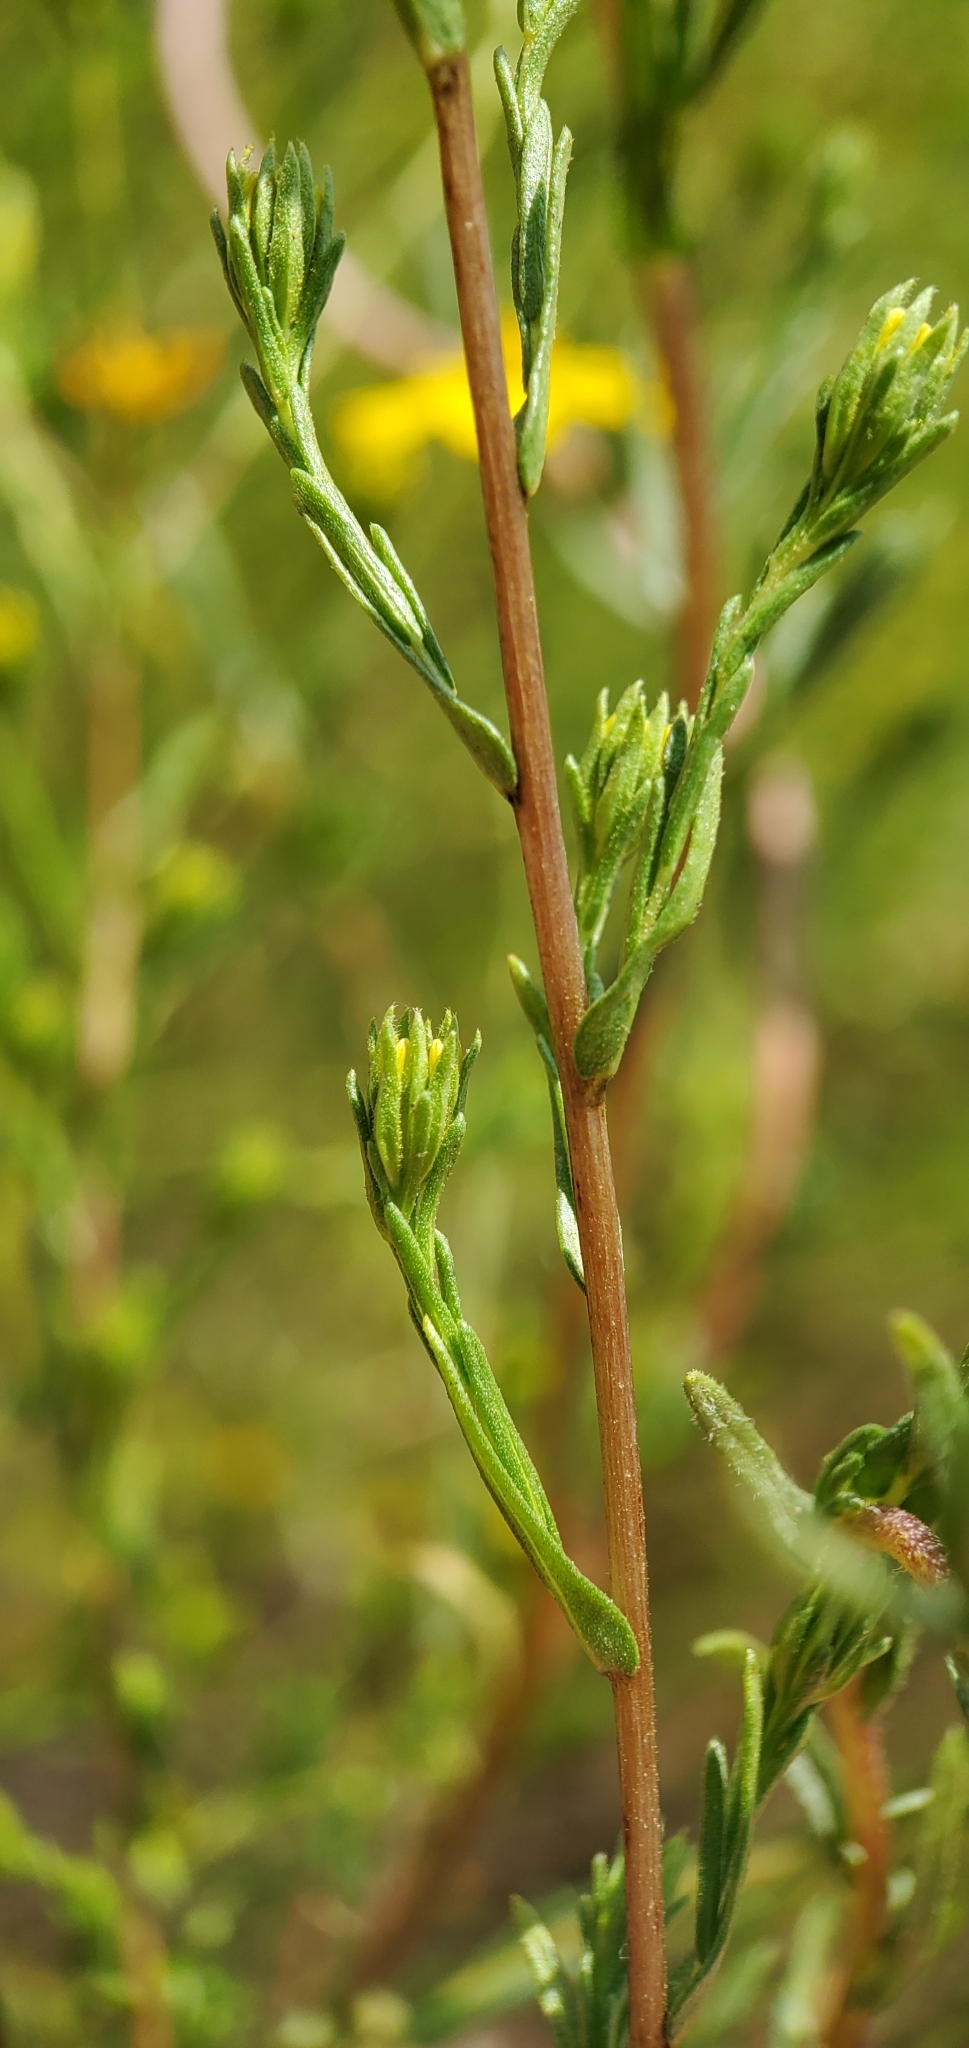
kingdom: Plantae
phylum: Tracheophyta
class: Magnoliopsida
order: Asterales
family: Asteraceae
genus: Deinandra
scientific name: Deinandra fasciculata
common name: Clustered tarweed
